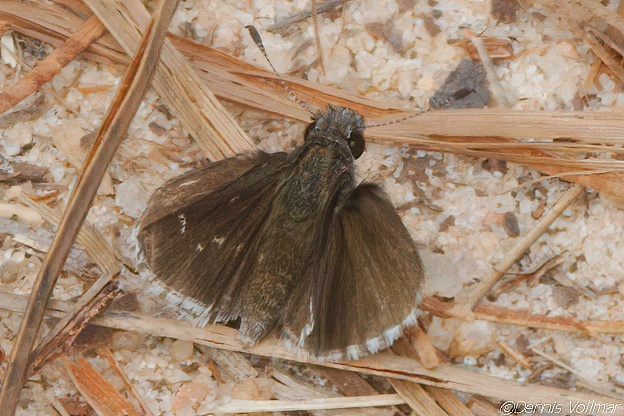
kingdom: Animalia
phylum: Arthropoda
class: Insecta
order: Lepidoptera
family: Hesperiidae
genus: Mastor
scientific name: Mastor alternata
